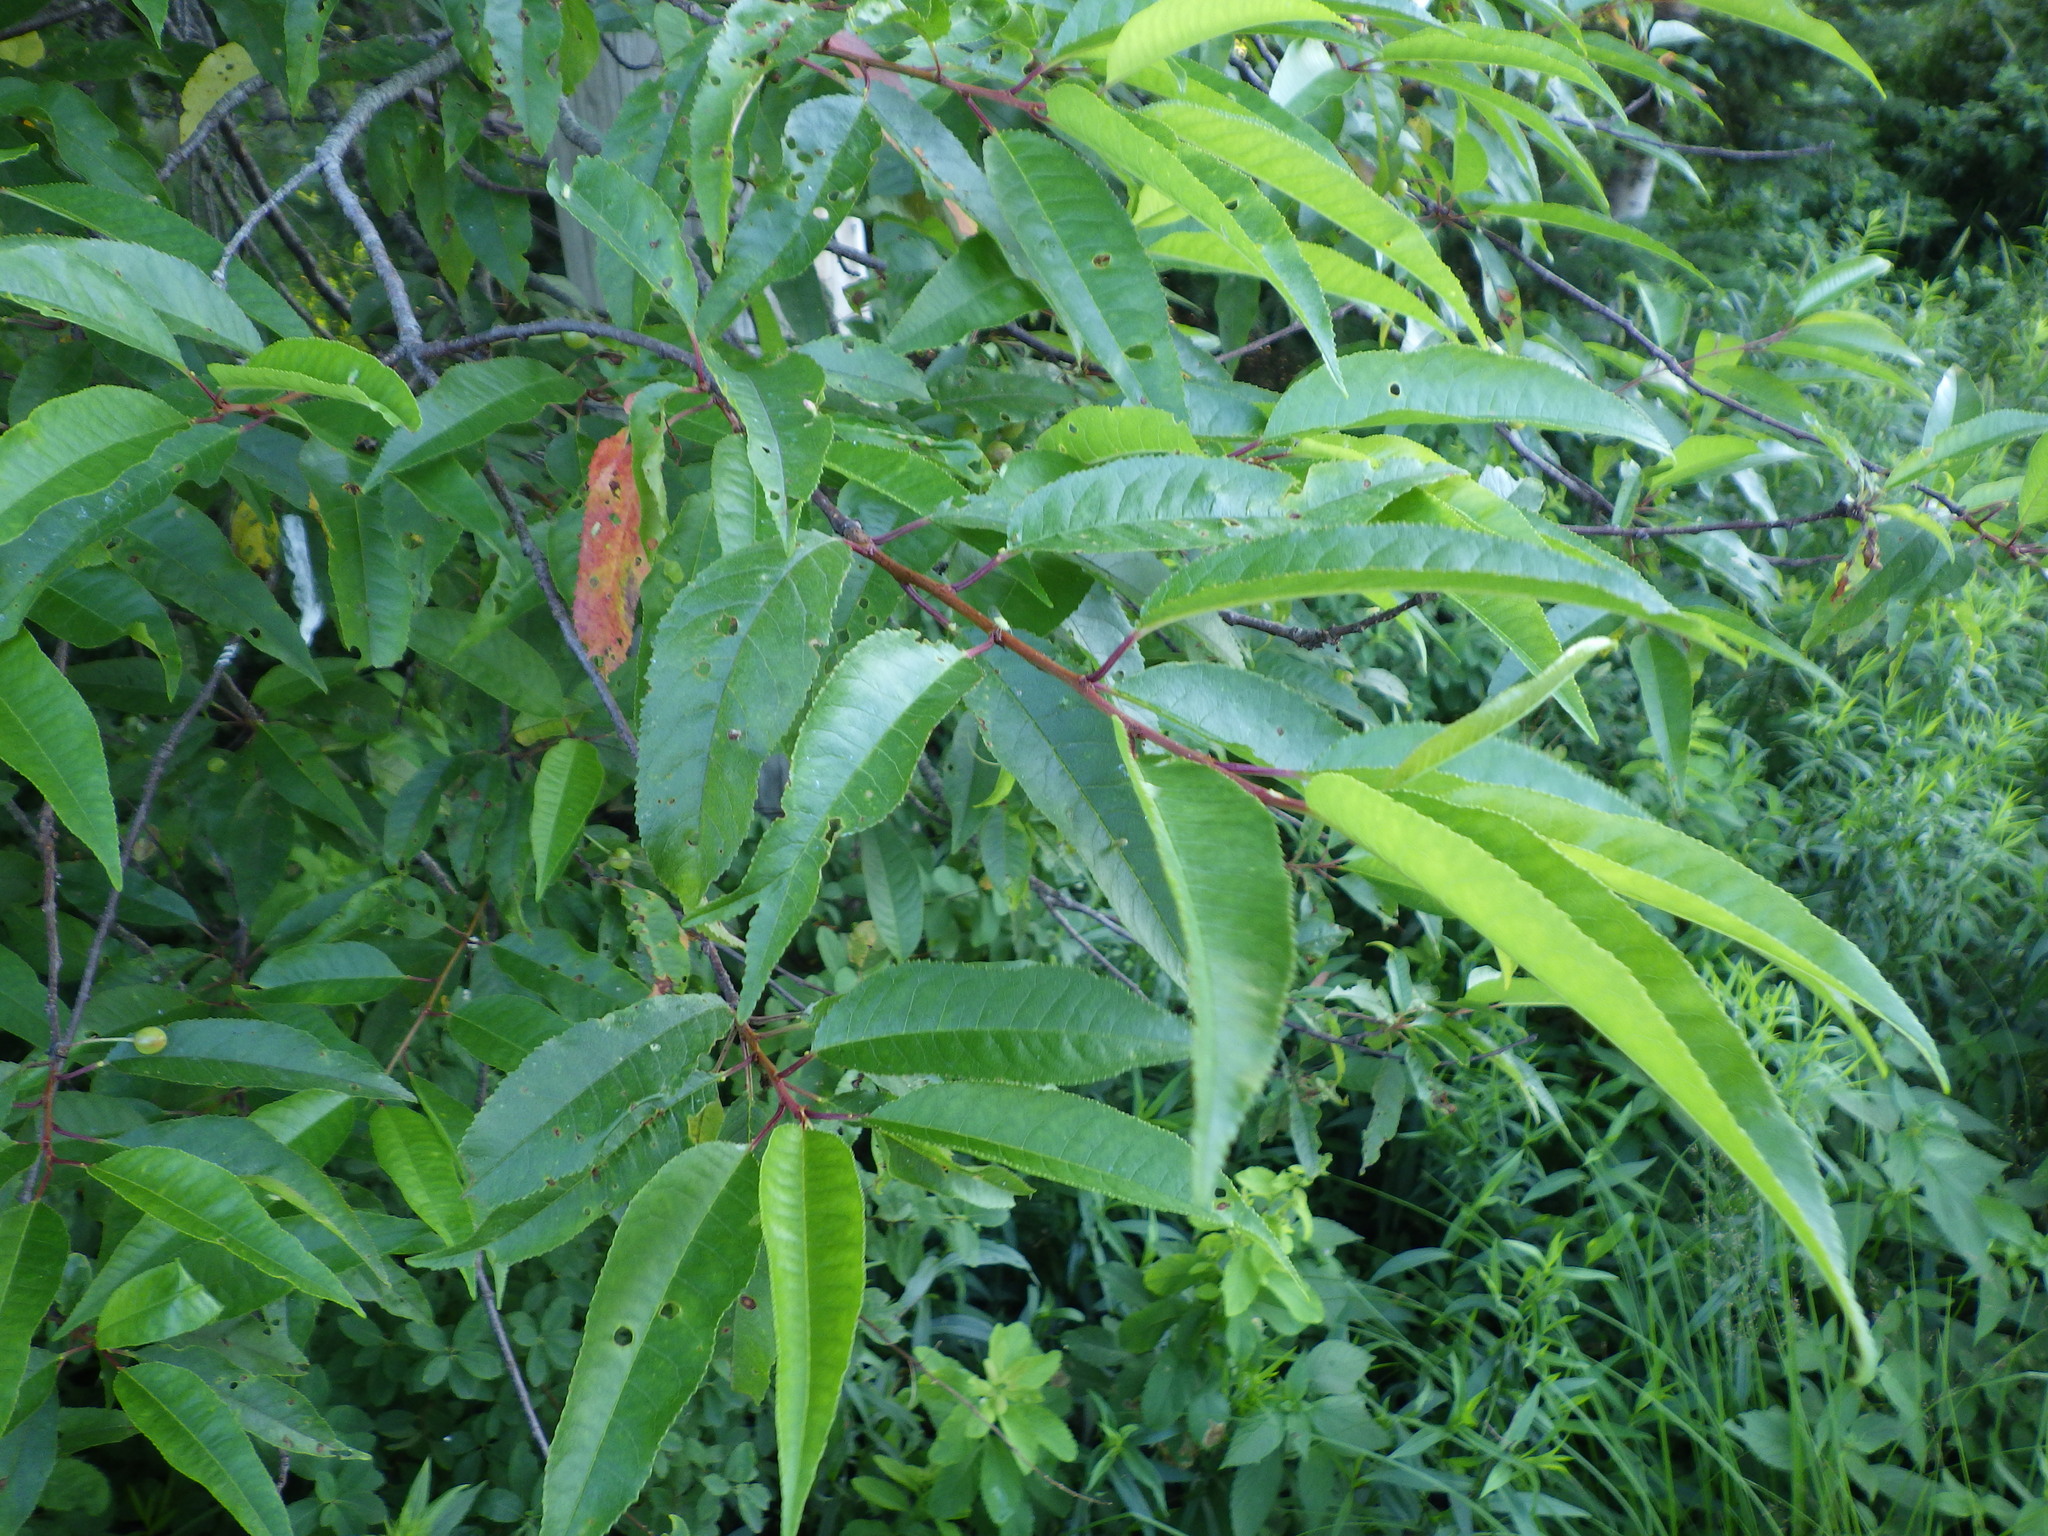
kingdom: Plantae
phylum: Tracheophyta
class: Magnoliopsida
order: Rosales
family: Rosaceae
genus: Prunus
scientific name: Prunus pensylvanica
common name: Pin cherry
